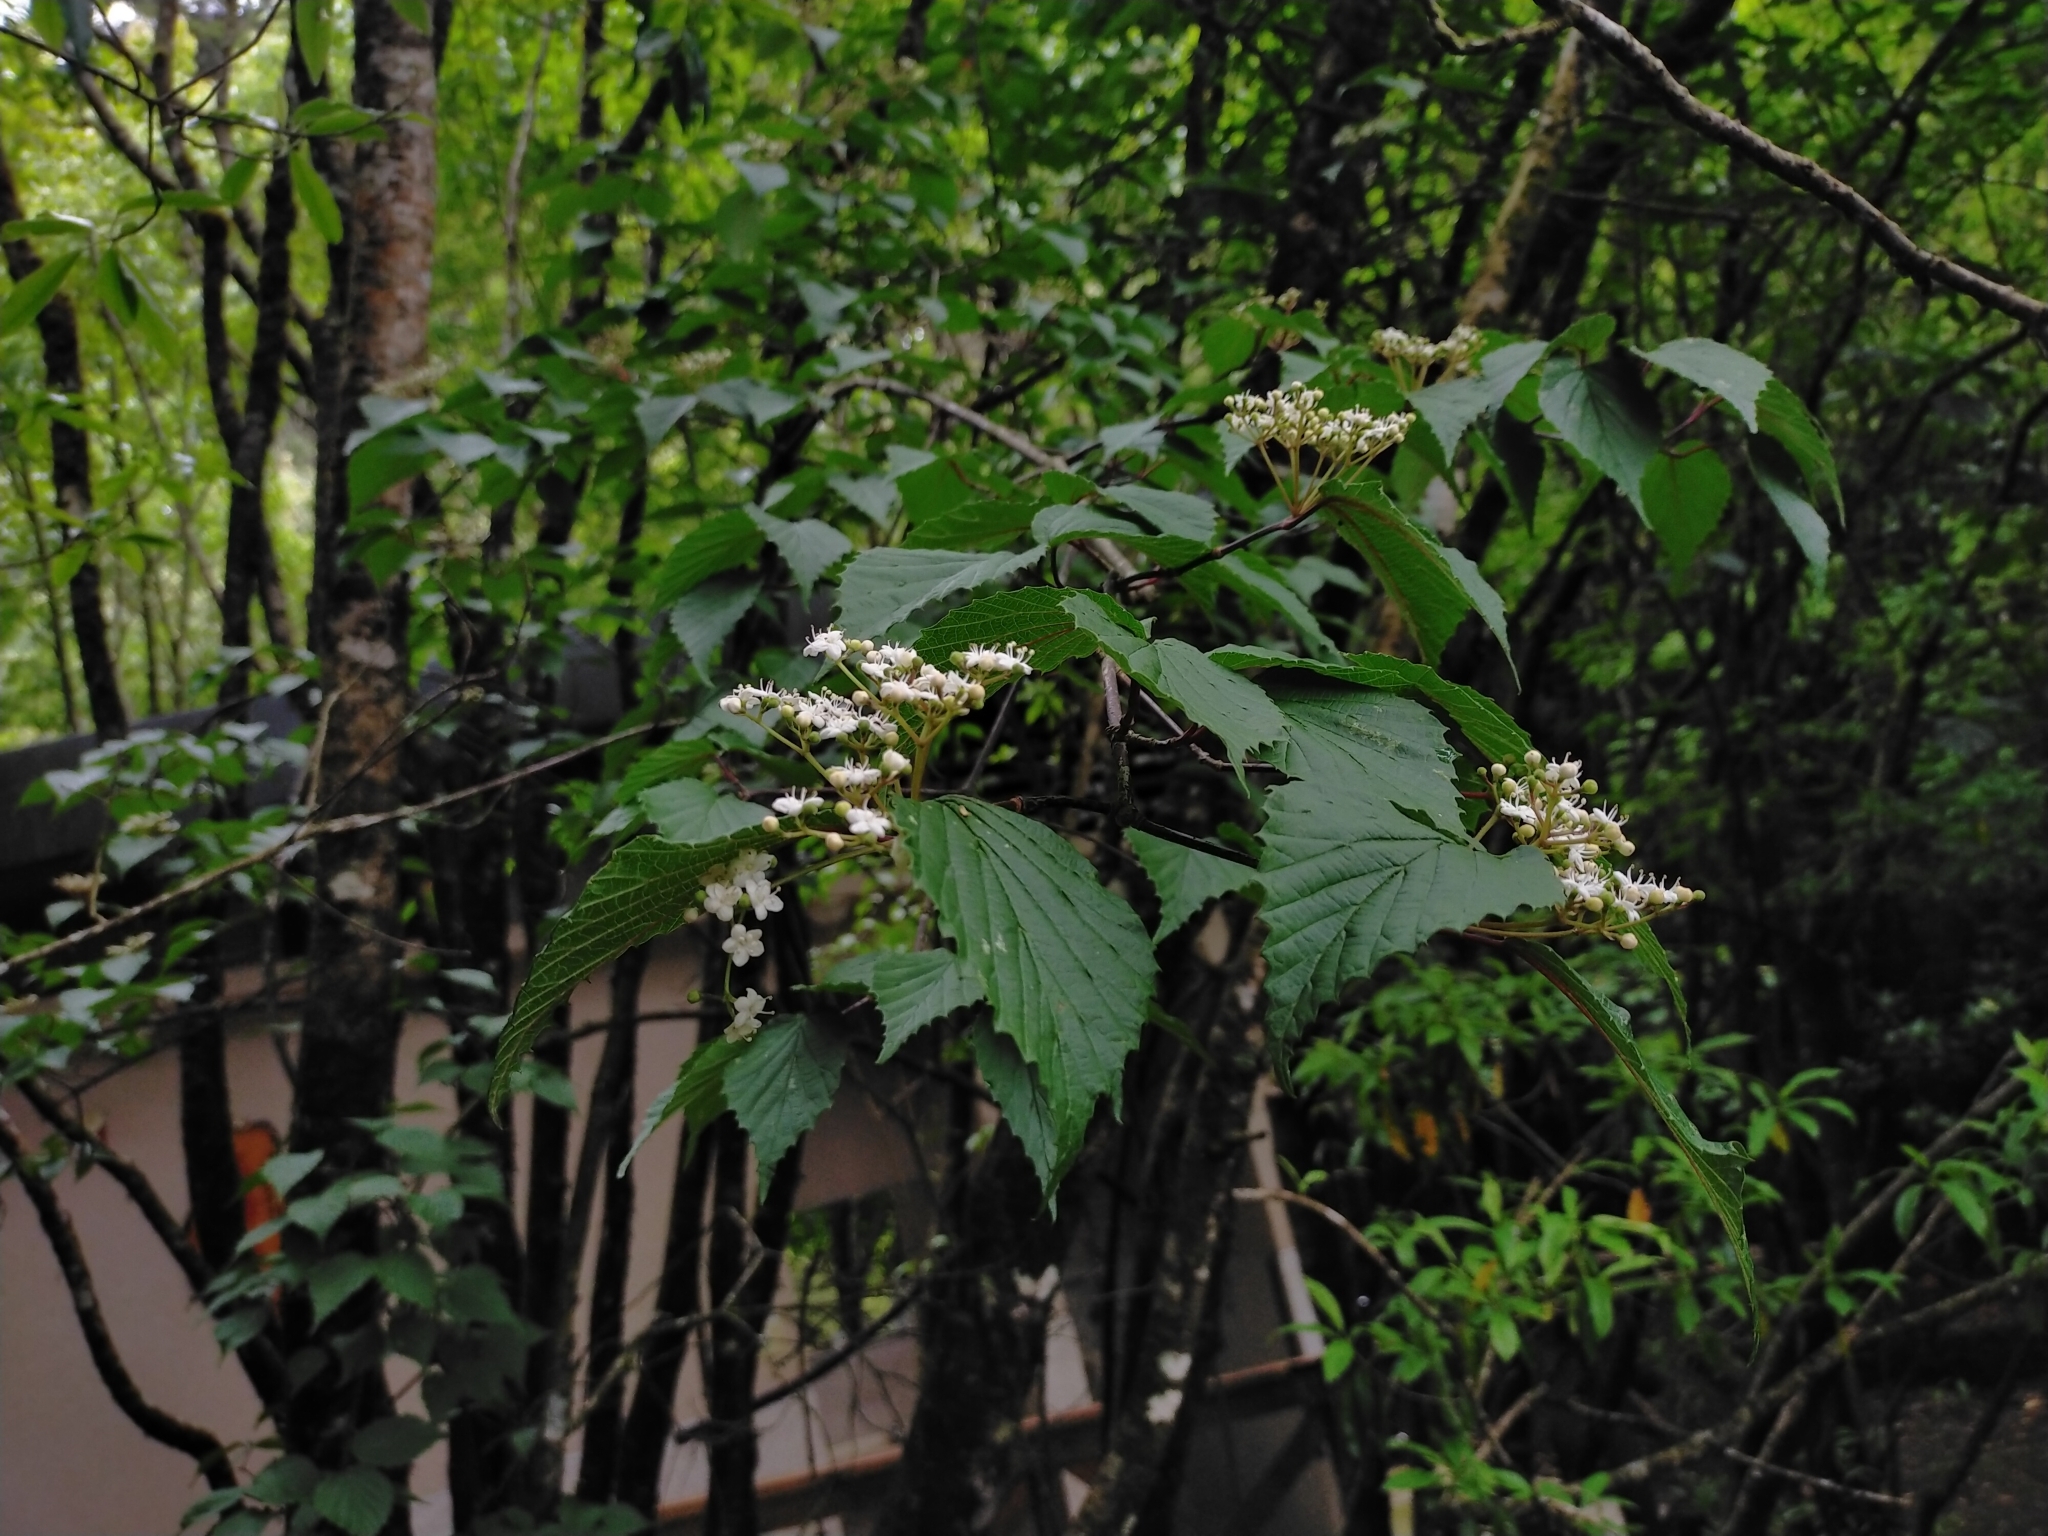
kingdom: Plantae
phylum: Tracheophyta
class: Magnoliopsida
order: Dipsacales
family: Viburnaceae
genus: Viburnum
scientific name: Viburnum betulifolium
